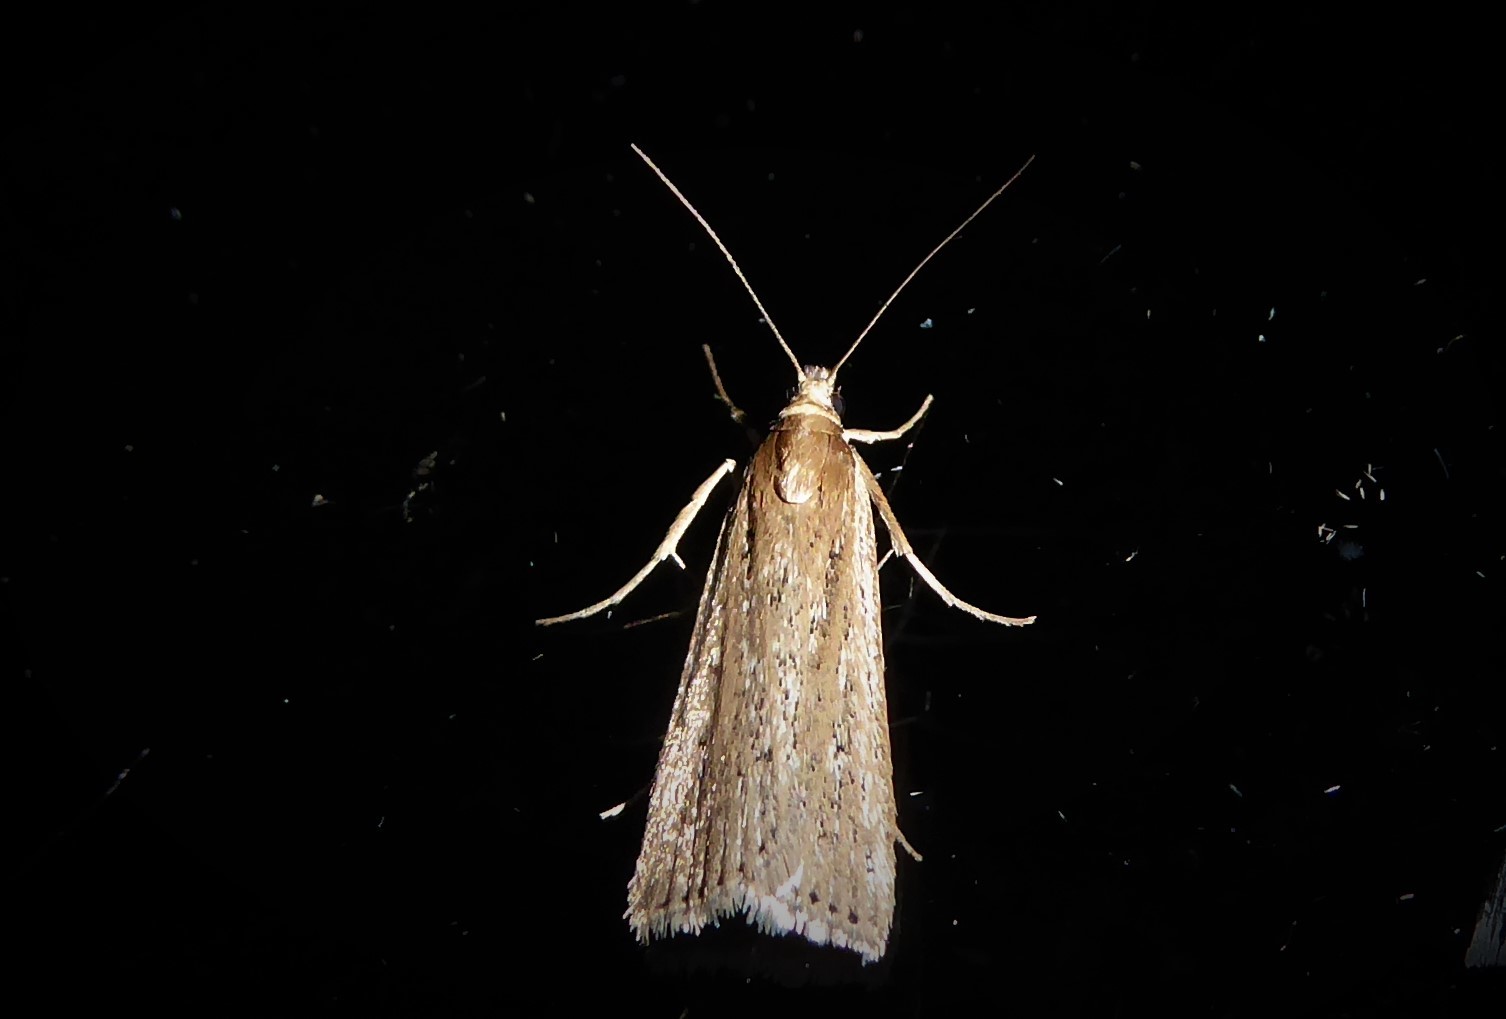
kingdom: Animalia
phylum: Arthropoda
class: Insecta
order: Lepidoptera
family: Crambidae
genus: Eudonia
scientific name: Eudonia sabulosella
